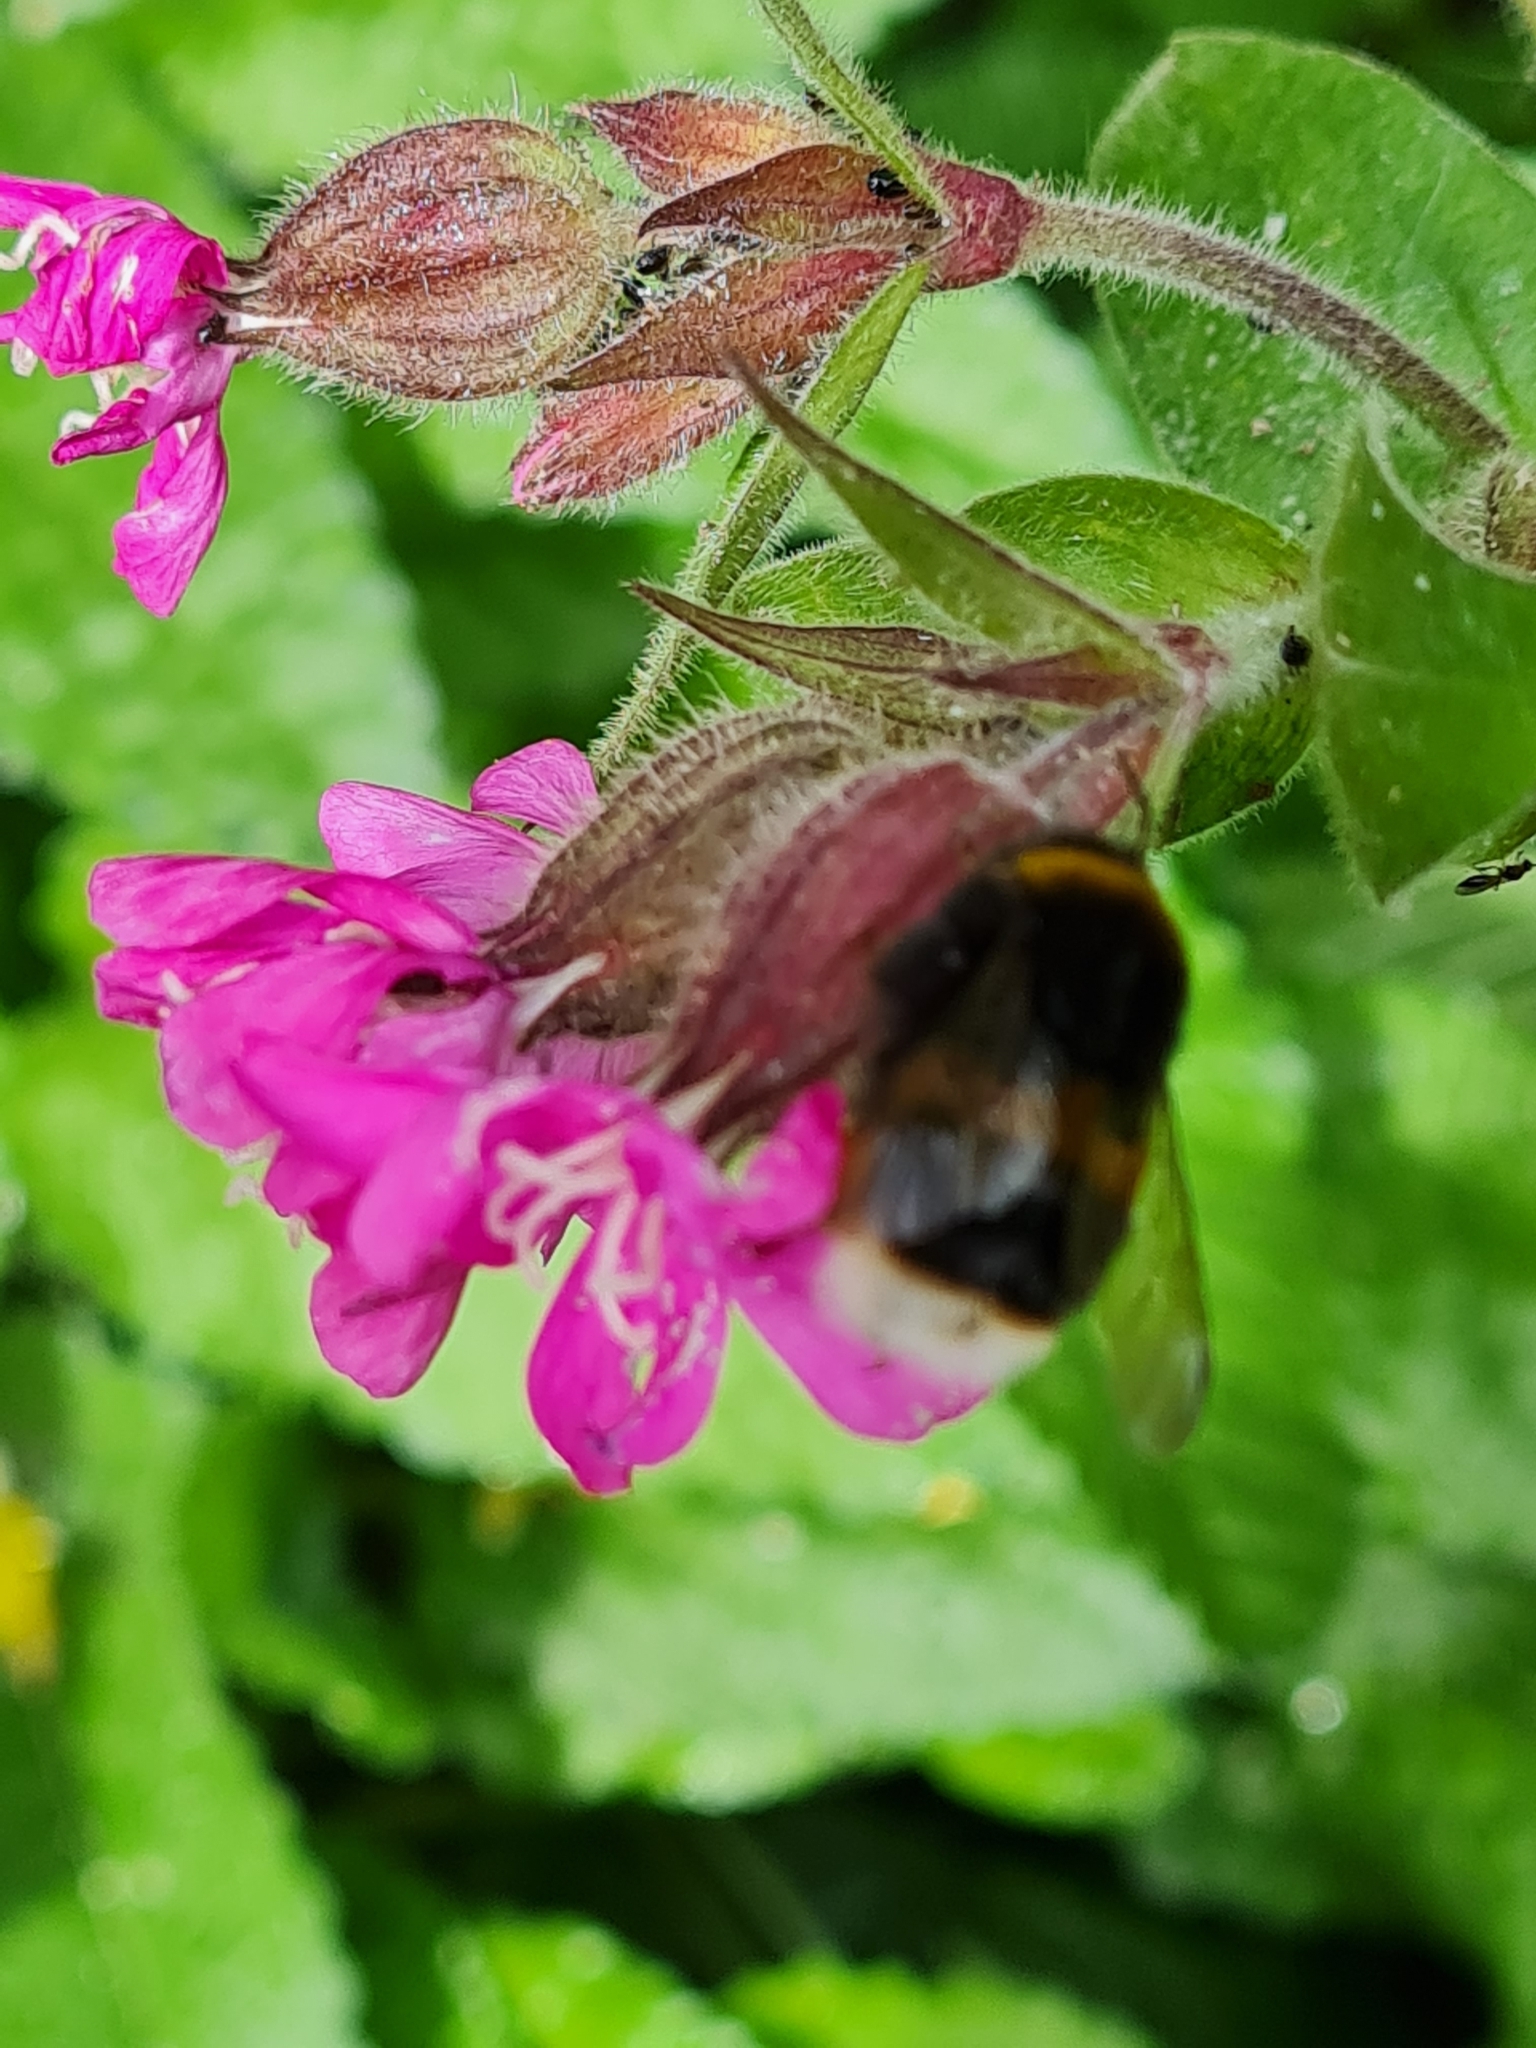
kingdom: Animalia
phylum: Arthropoda
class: Insecta
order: Hymenoptera
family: Apidae
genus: Bombus
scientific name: Bombus terrestris
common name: Buff-tailed bumblebee
